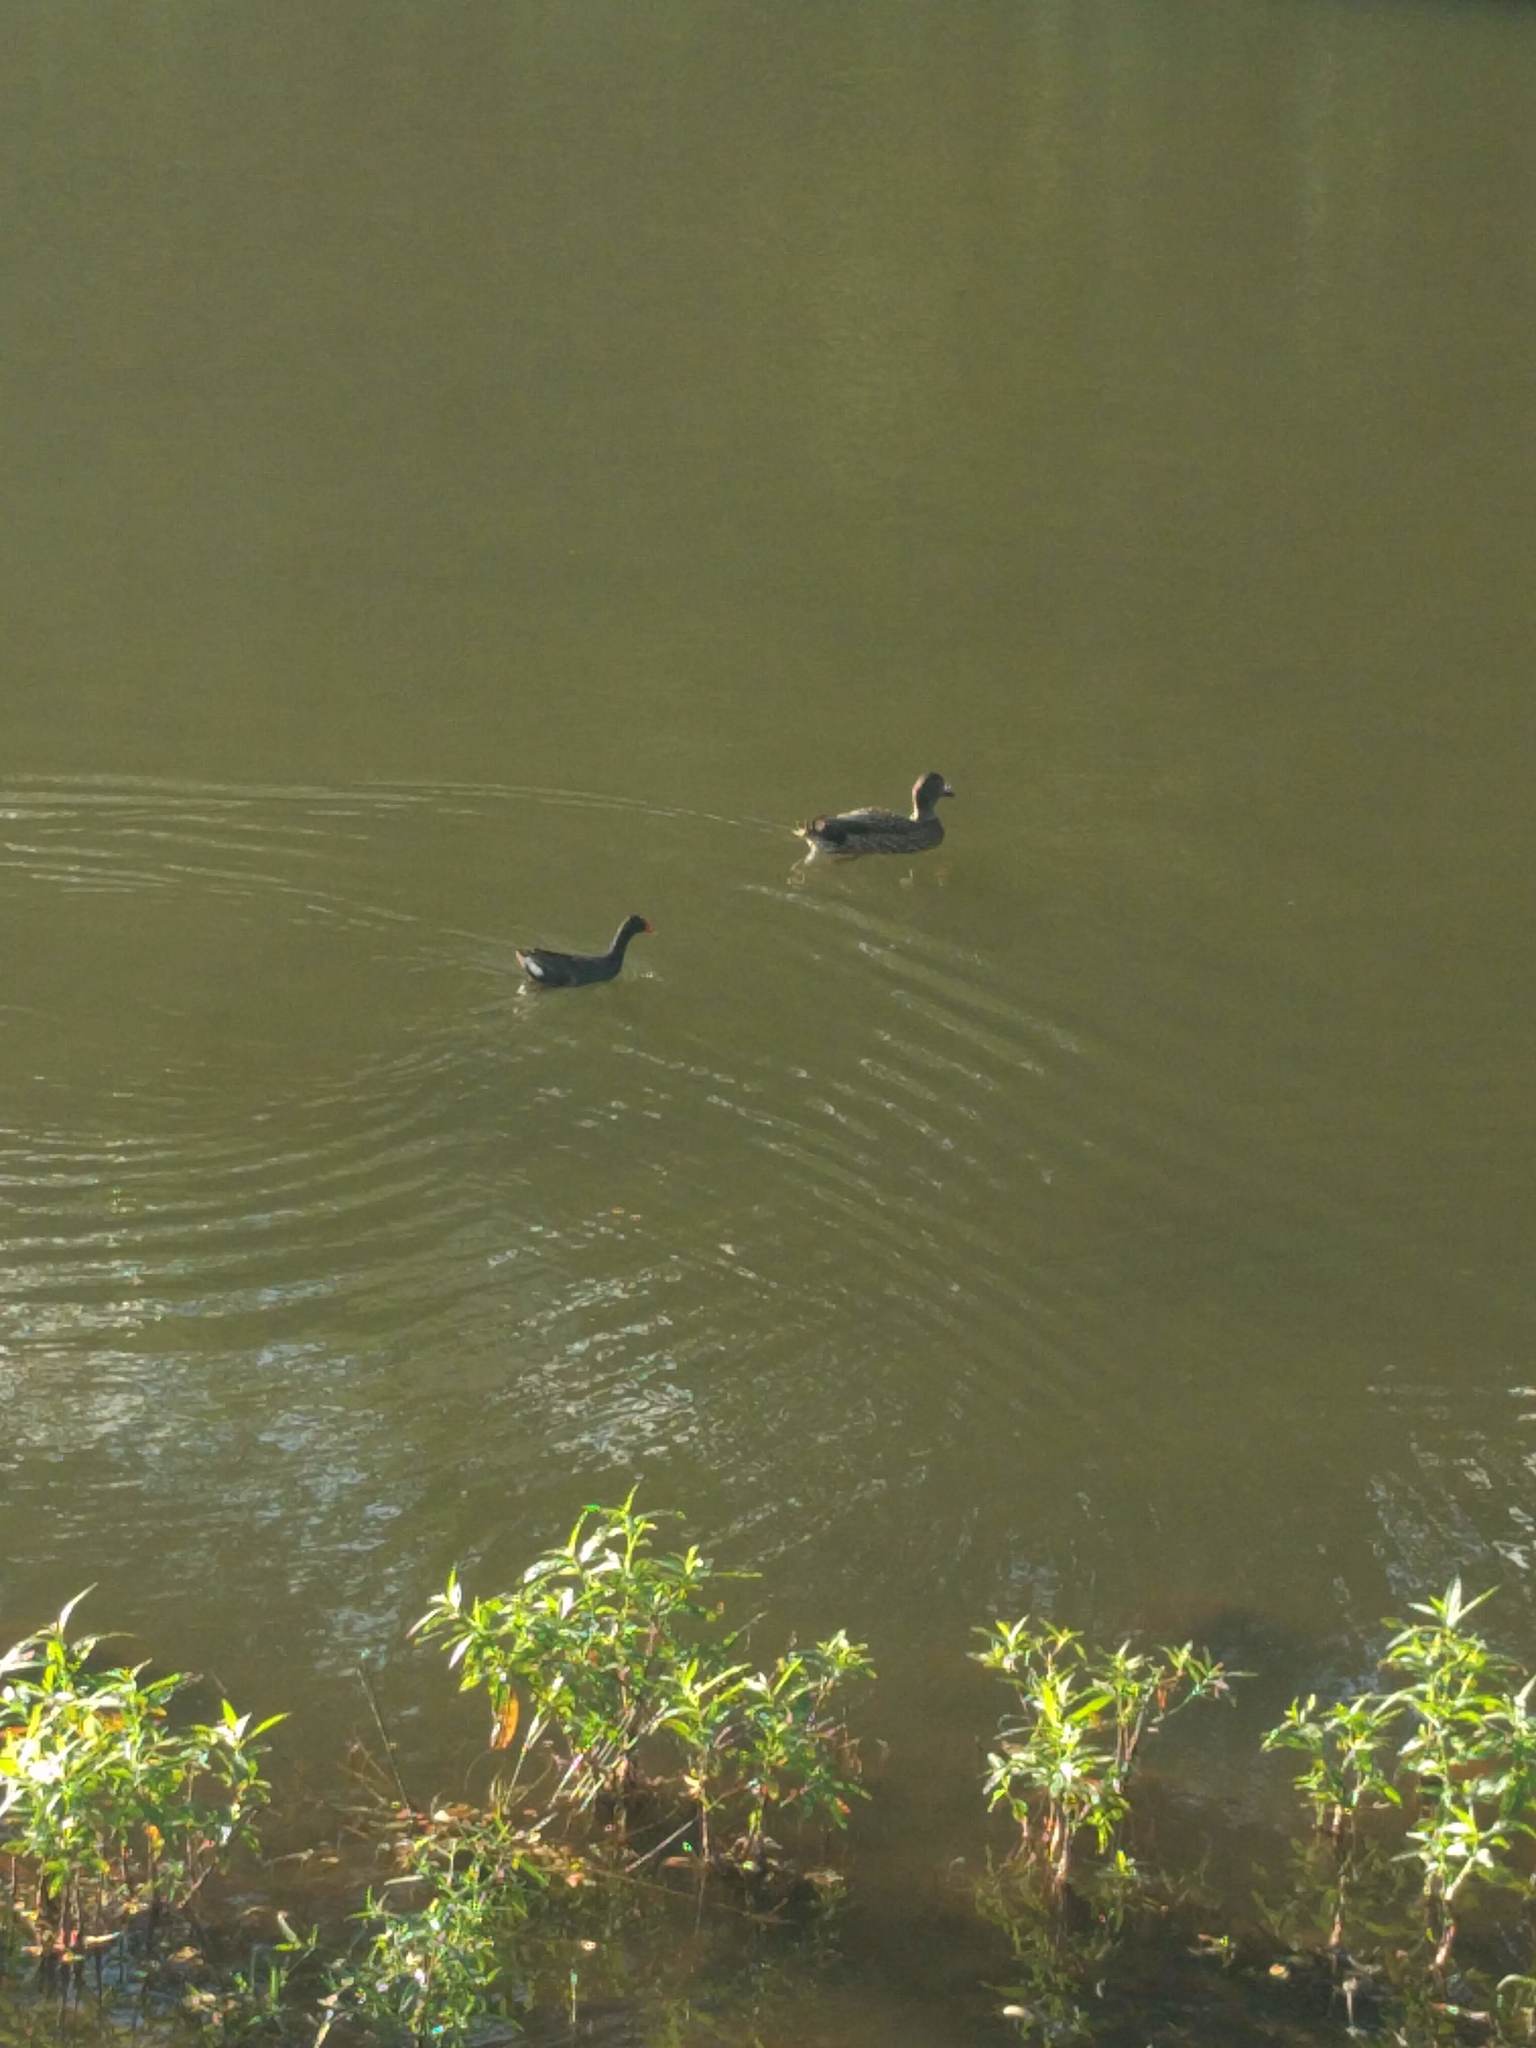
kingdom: Animalia
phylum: Chordata
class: Aves
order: Gruiformes
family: Rallidae
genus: Gallinula
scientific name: Gallinula chloropus
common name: Common moorhen
